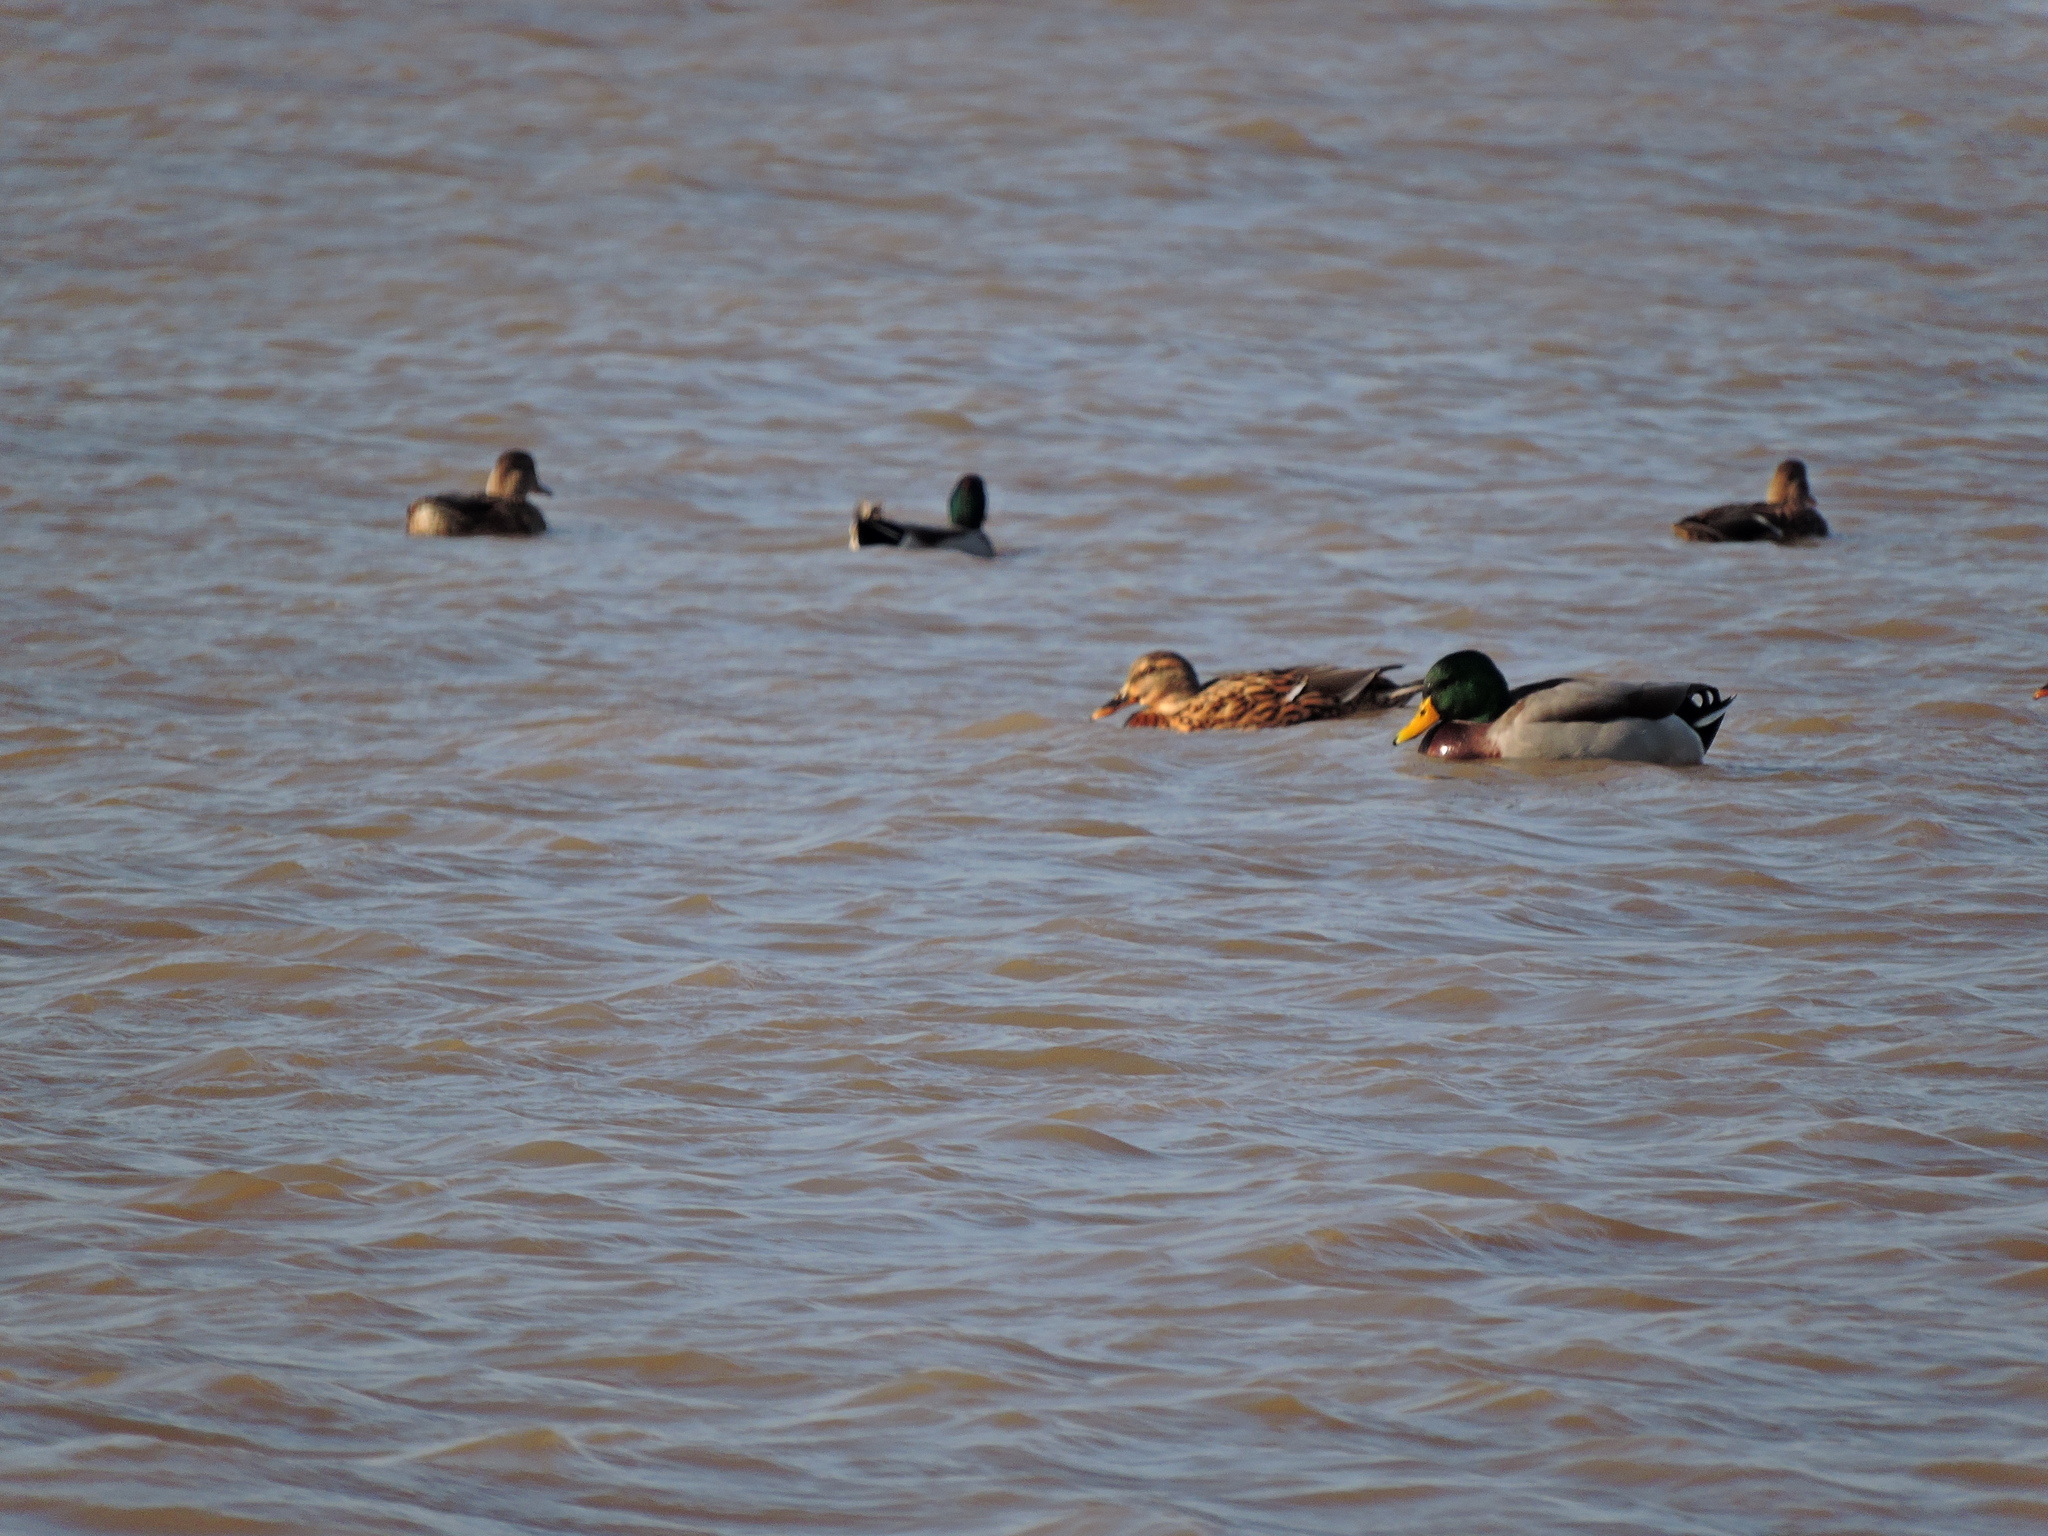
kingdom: Animalia
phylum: Chordata
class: Aves
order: Anseriformes
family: Anatidae
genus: Anas
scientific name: Anas platyrhynchos
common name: Mallard
